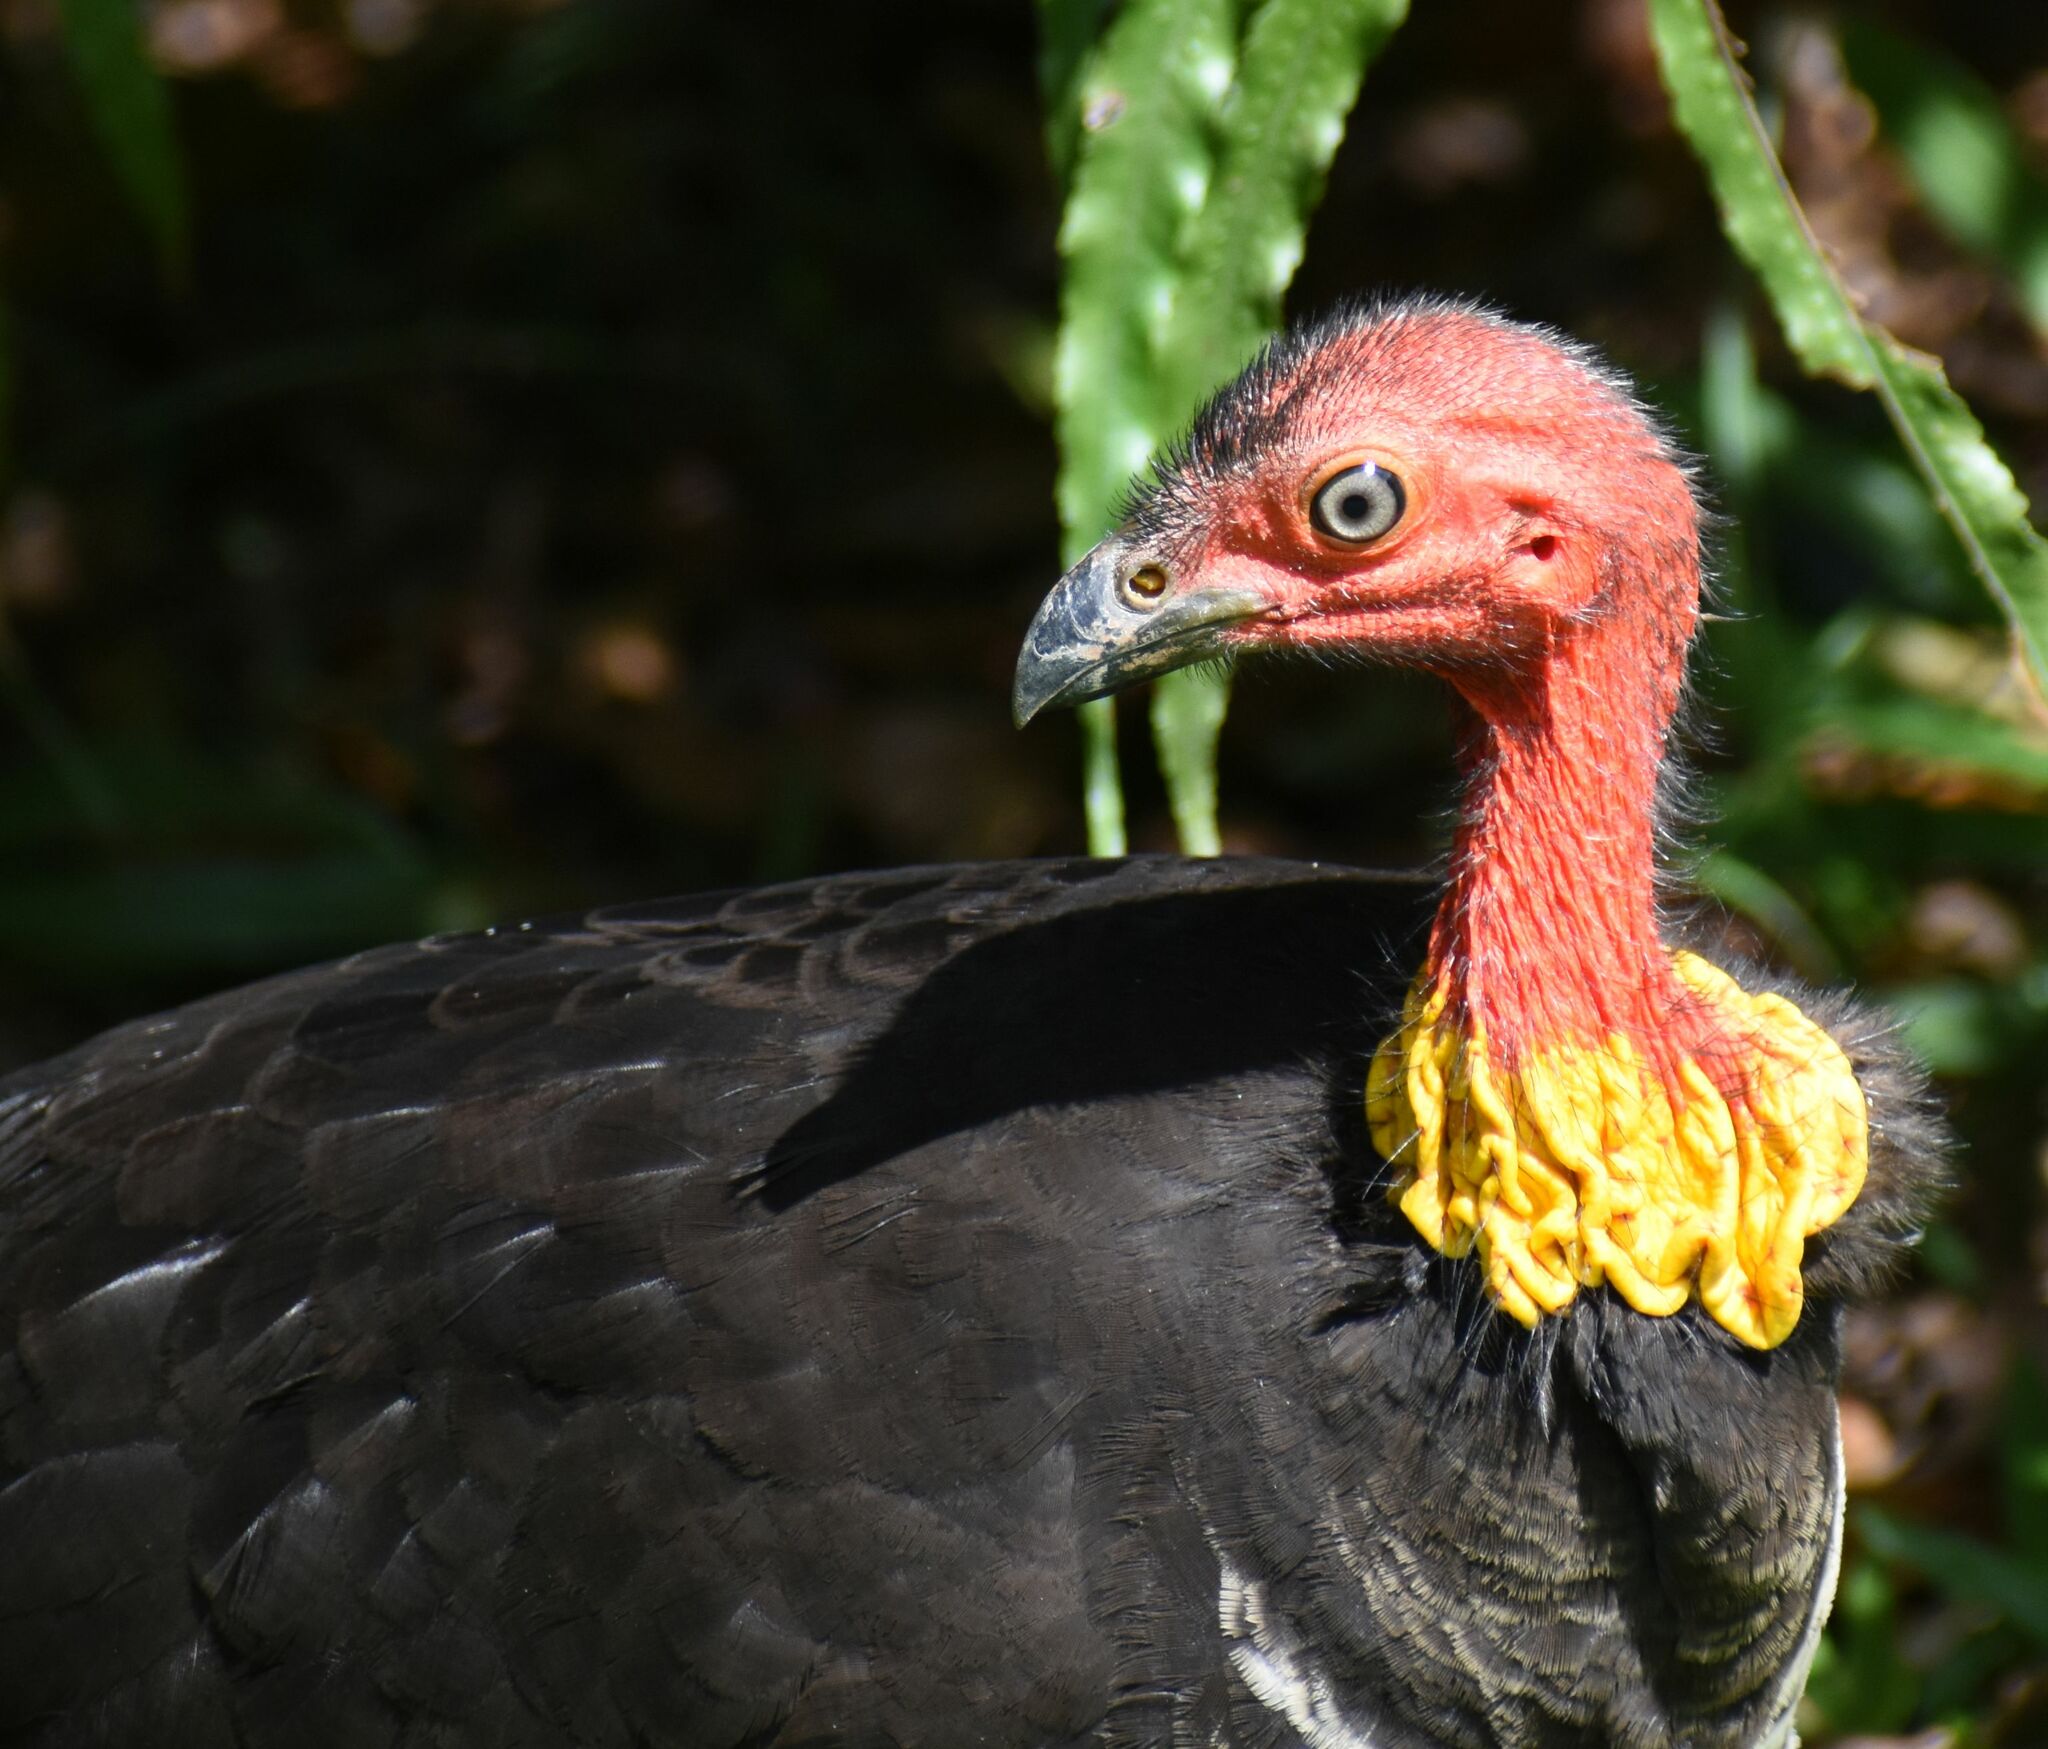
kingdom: Animalia
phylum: Chordata
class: Aves
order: Galliformes
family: Megapodiidae
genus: Alectura
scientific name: Alectura lathami
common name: Australian brushturkey
